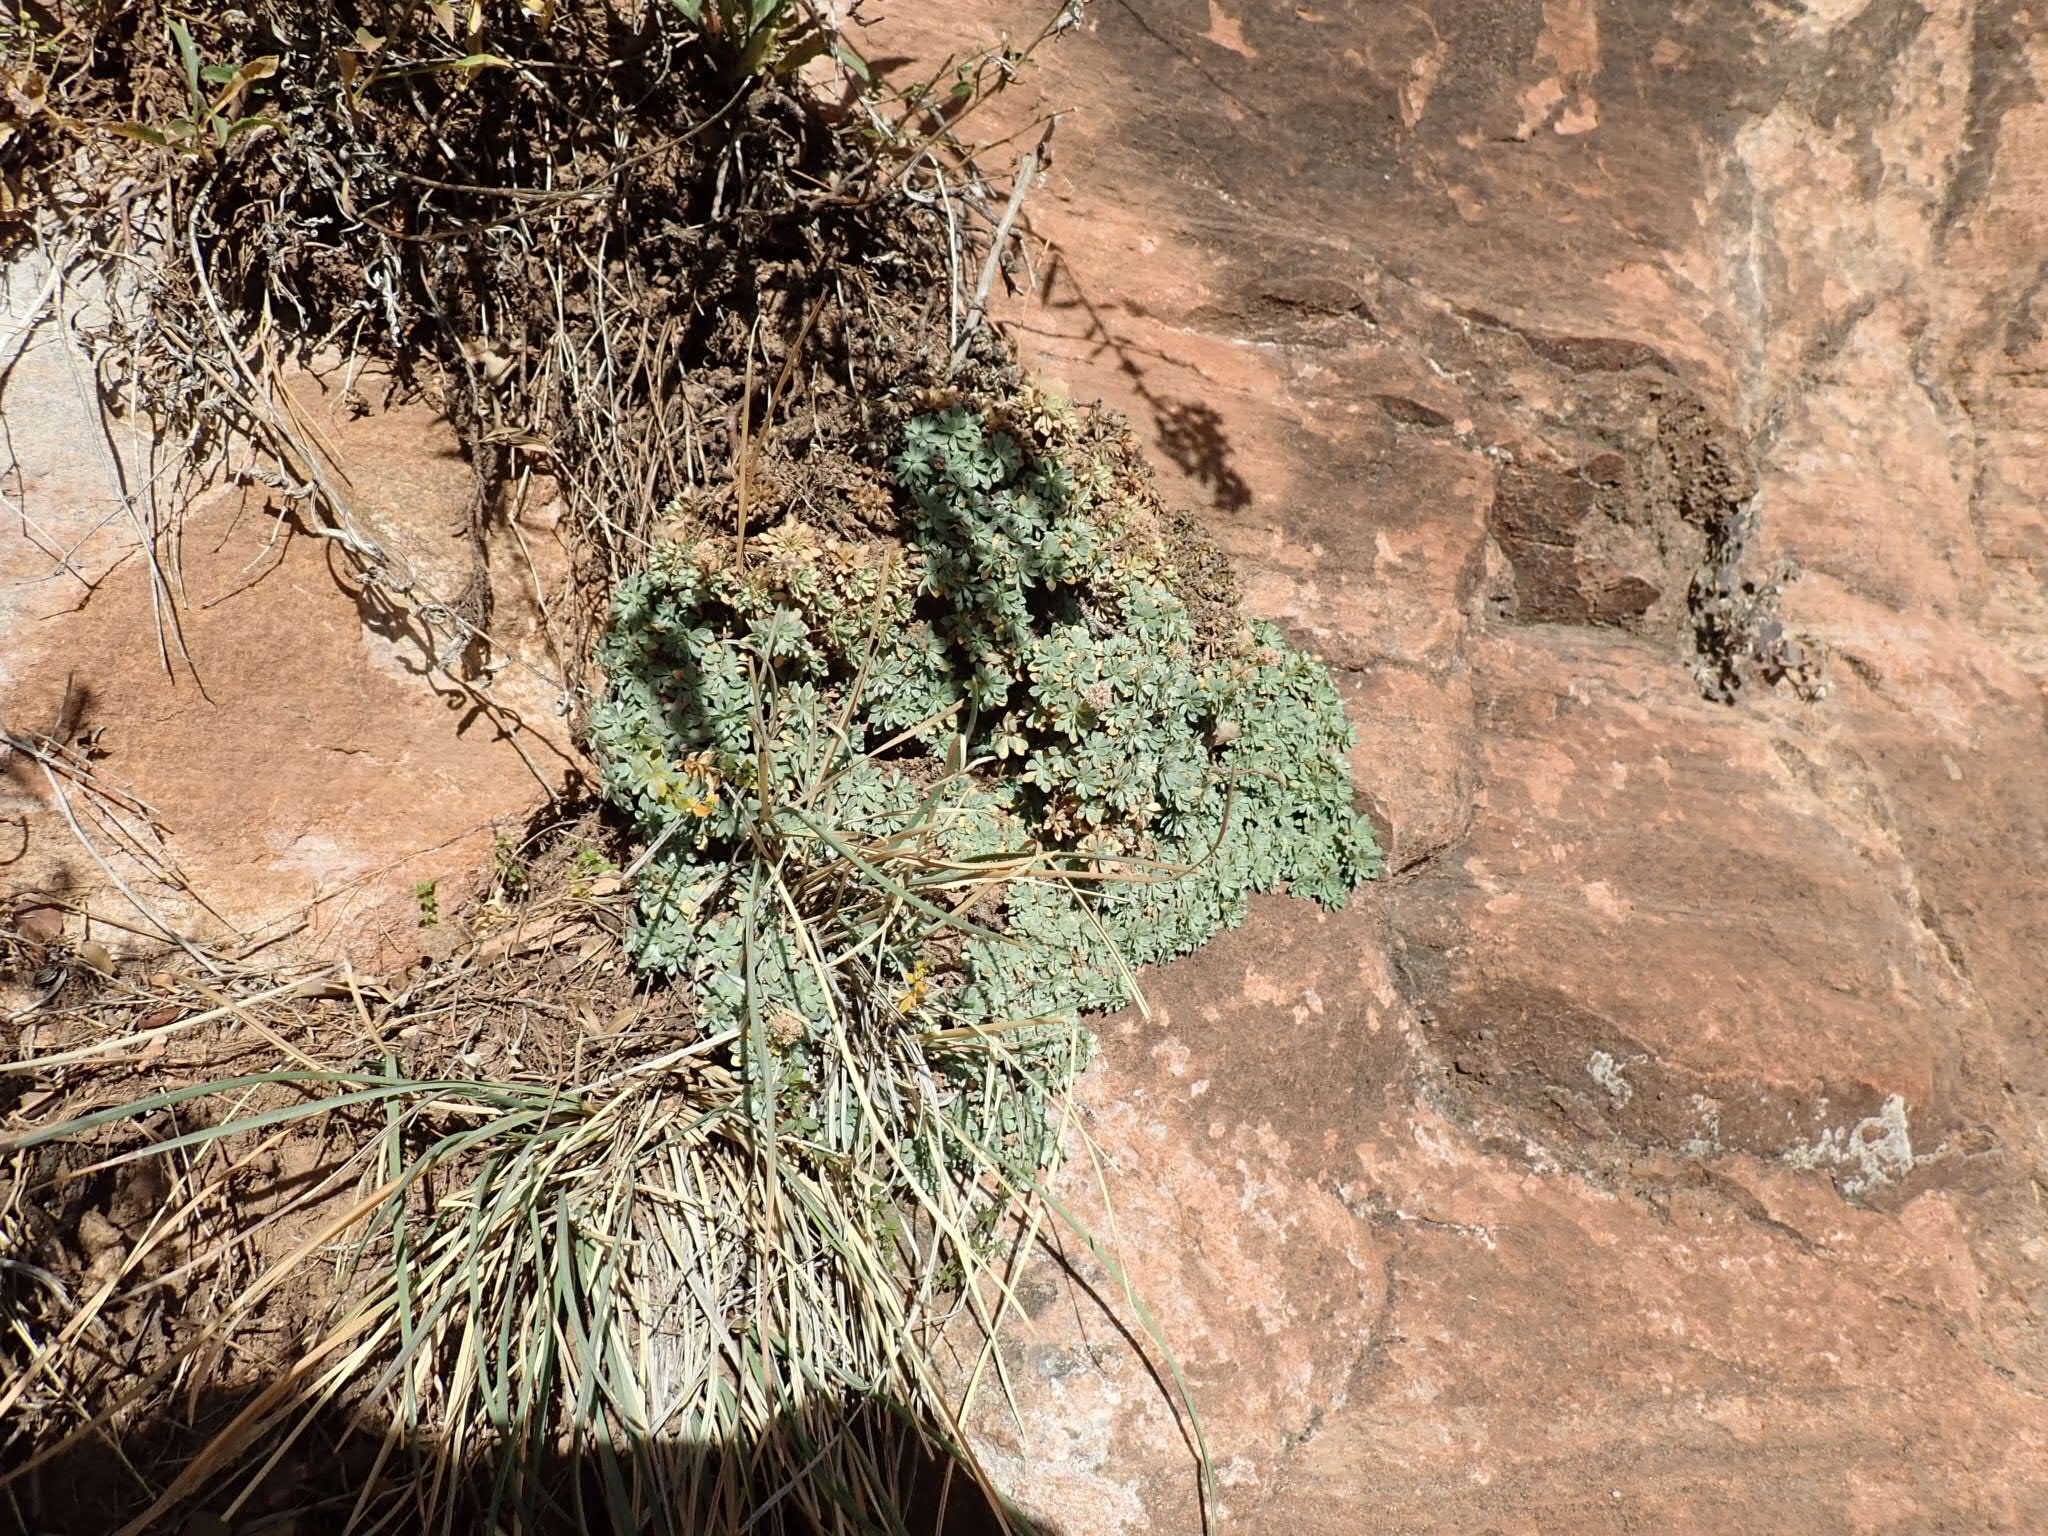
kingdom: Plantae
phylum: Tracheophyta
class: Magnoliopsida
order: Rosales
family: Rosaceae
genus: Petrophytum
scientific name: Petrophytum caespitosum
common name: Mat rockspirea
